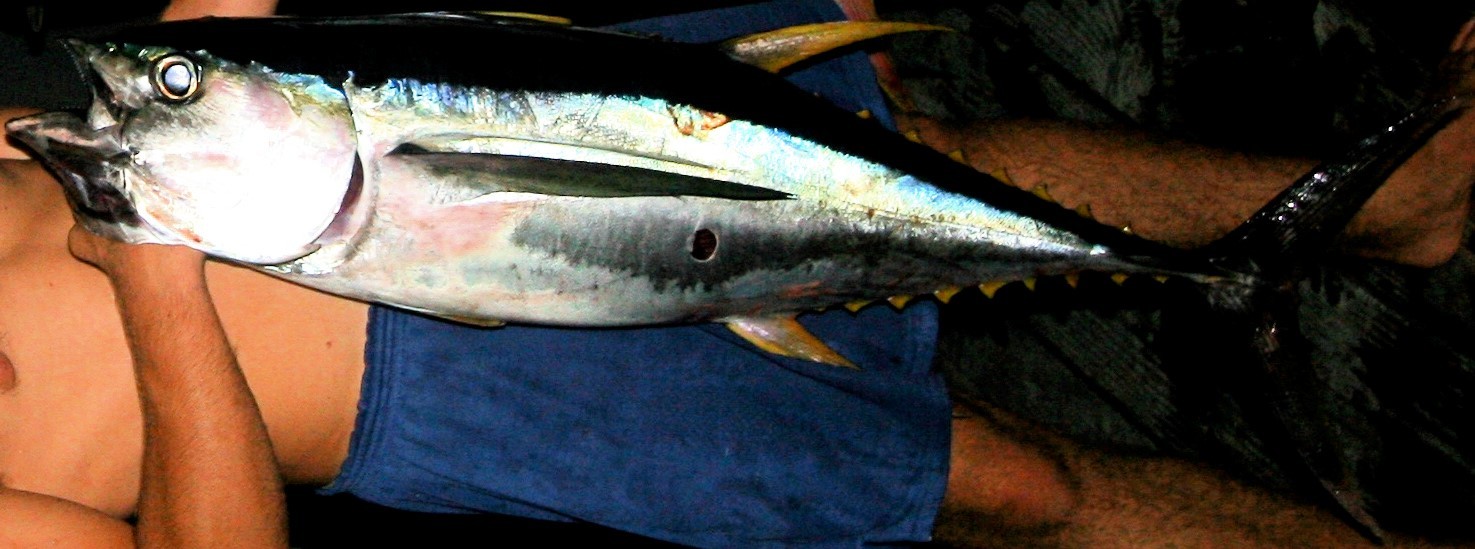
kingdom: Animalia
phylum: Chordata
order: Perciformes
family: Scombridae
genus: Thunnus
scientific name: Thunnus albacares
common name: Yellowfin tuna
